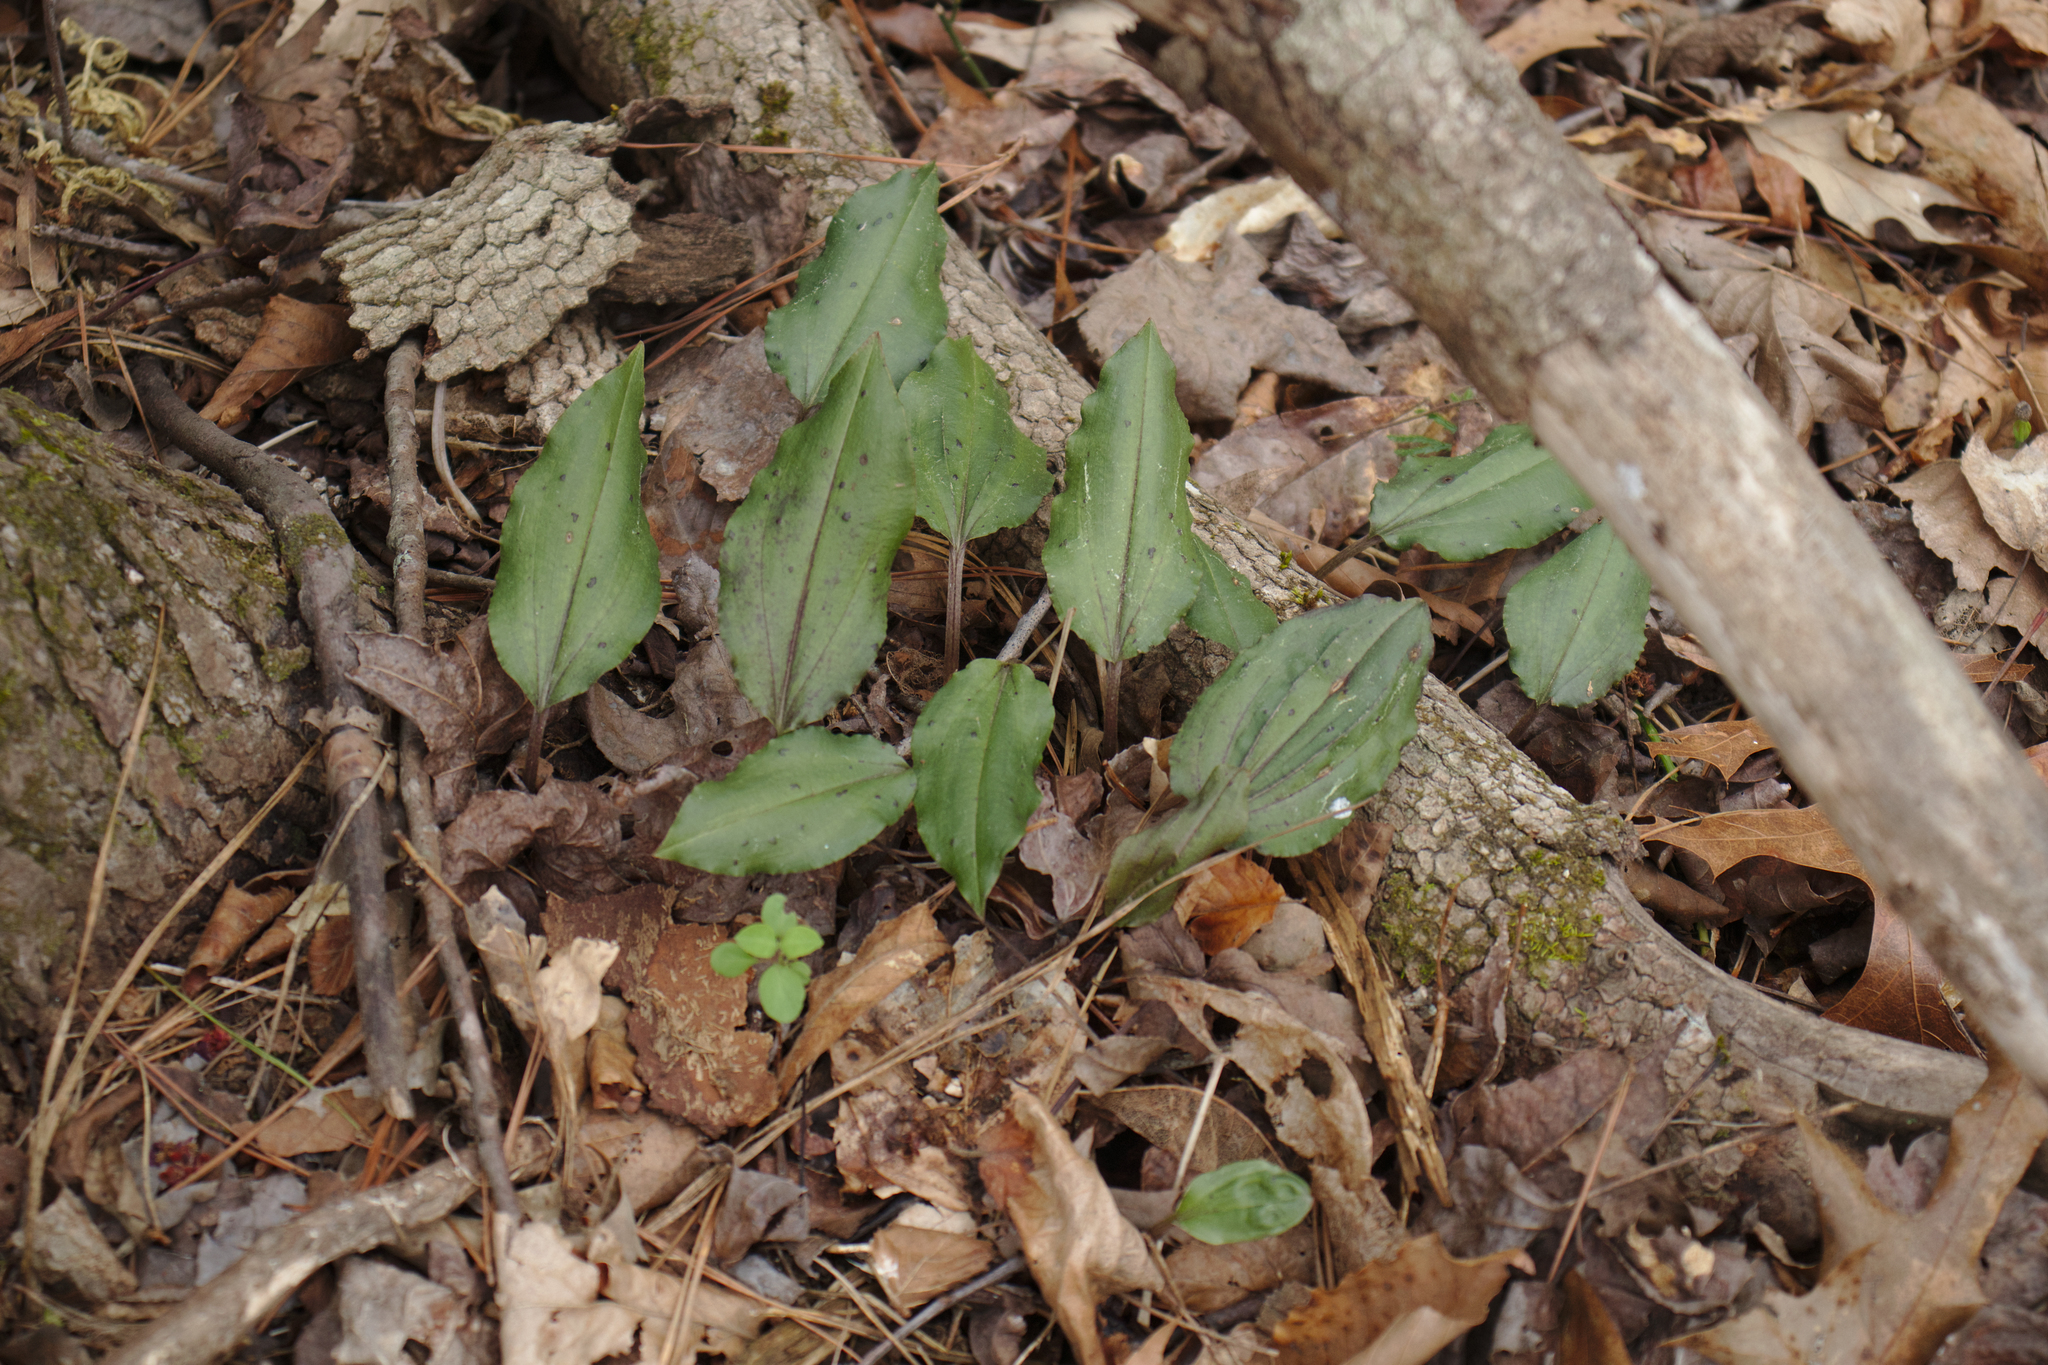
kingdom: Plantae
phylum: Tracheophyta
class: Liliopsida
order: Asparagales
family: Orchidaceae
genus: Tipularia
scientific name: Tipularia discolor
